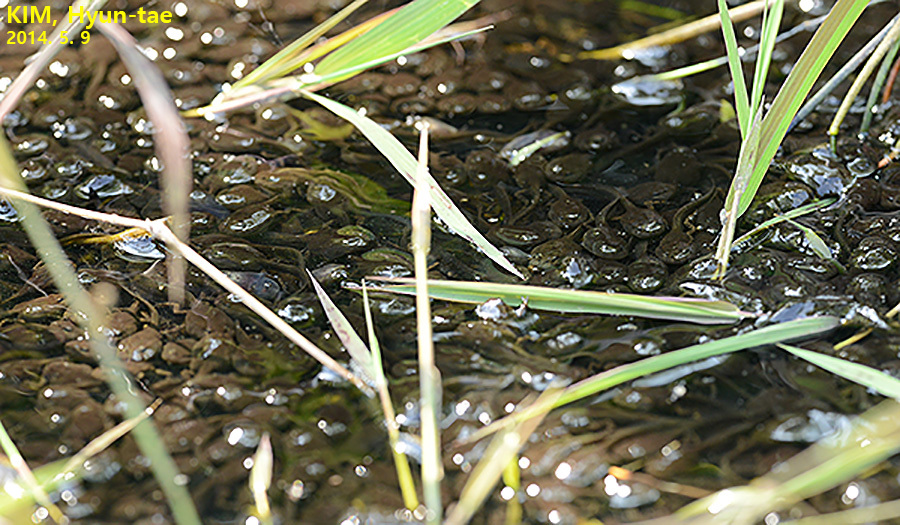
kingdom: Animalia
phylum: Chordata
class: Amphibia
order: Anura
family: Bufonidae
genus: Bufo
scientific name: Bufo gargarizans
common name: Asiatic toad
